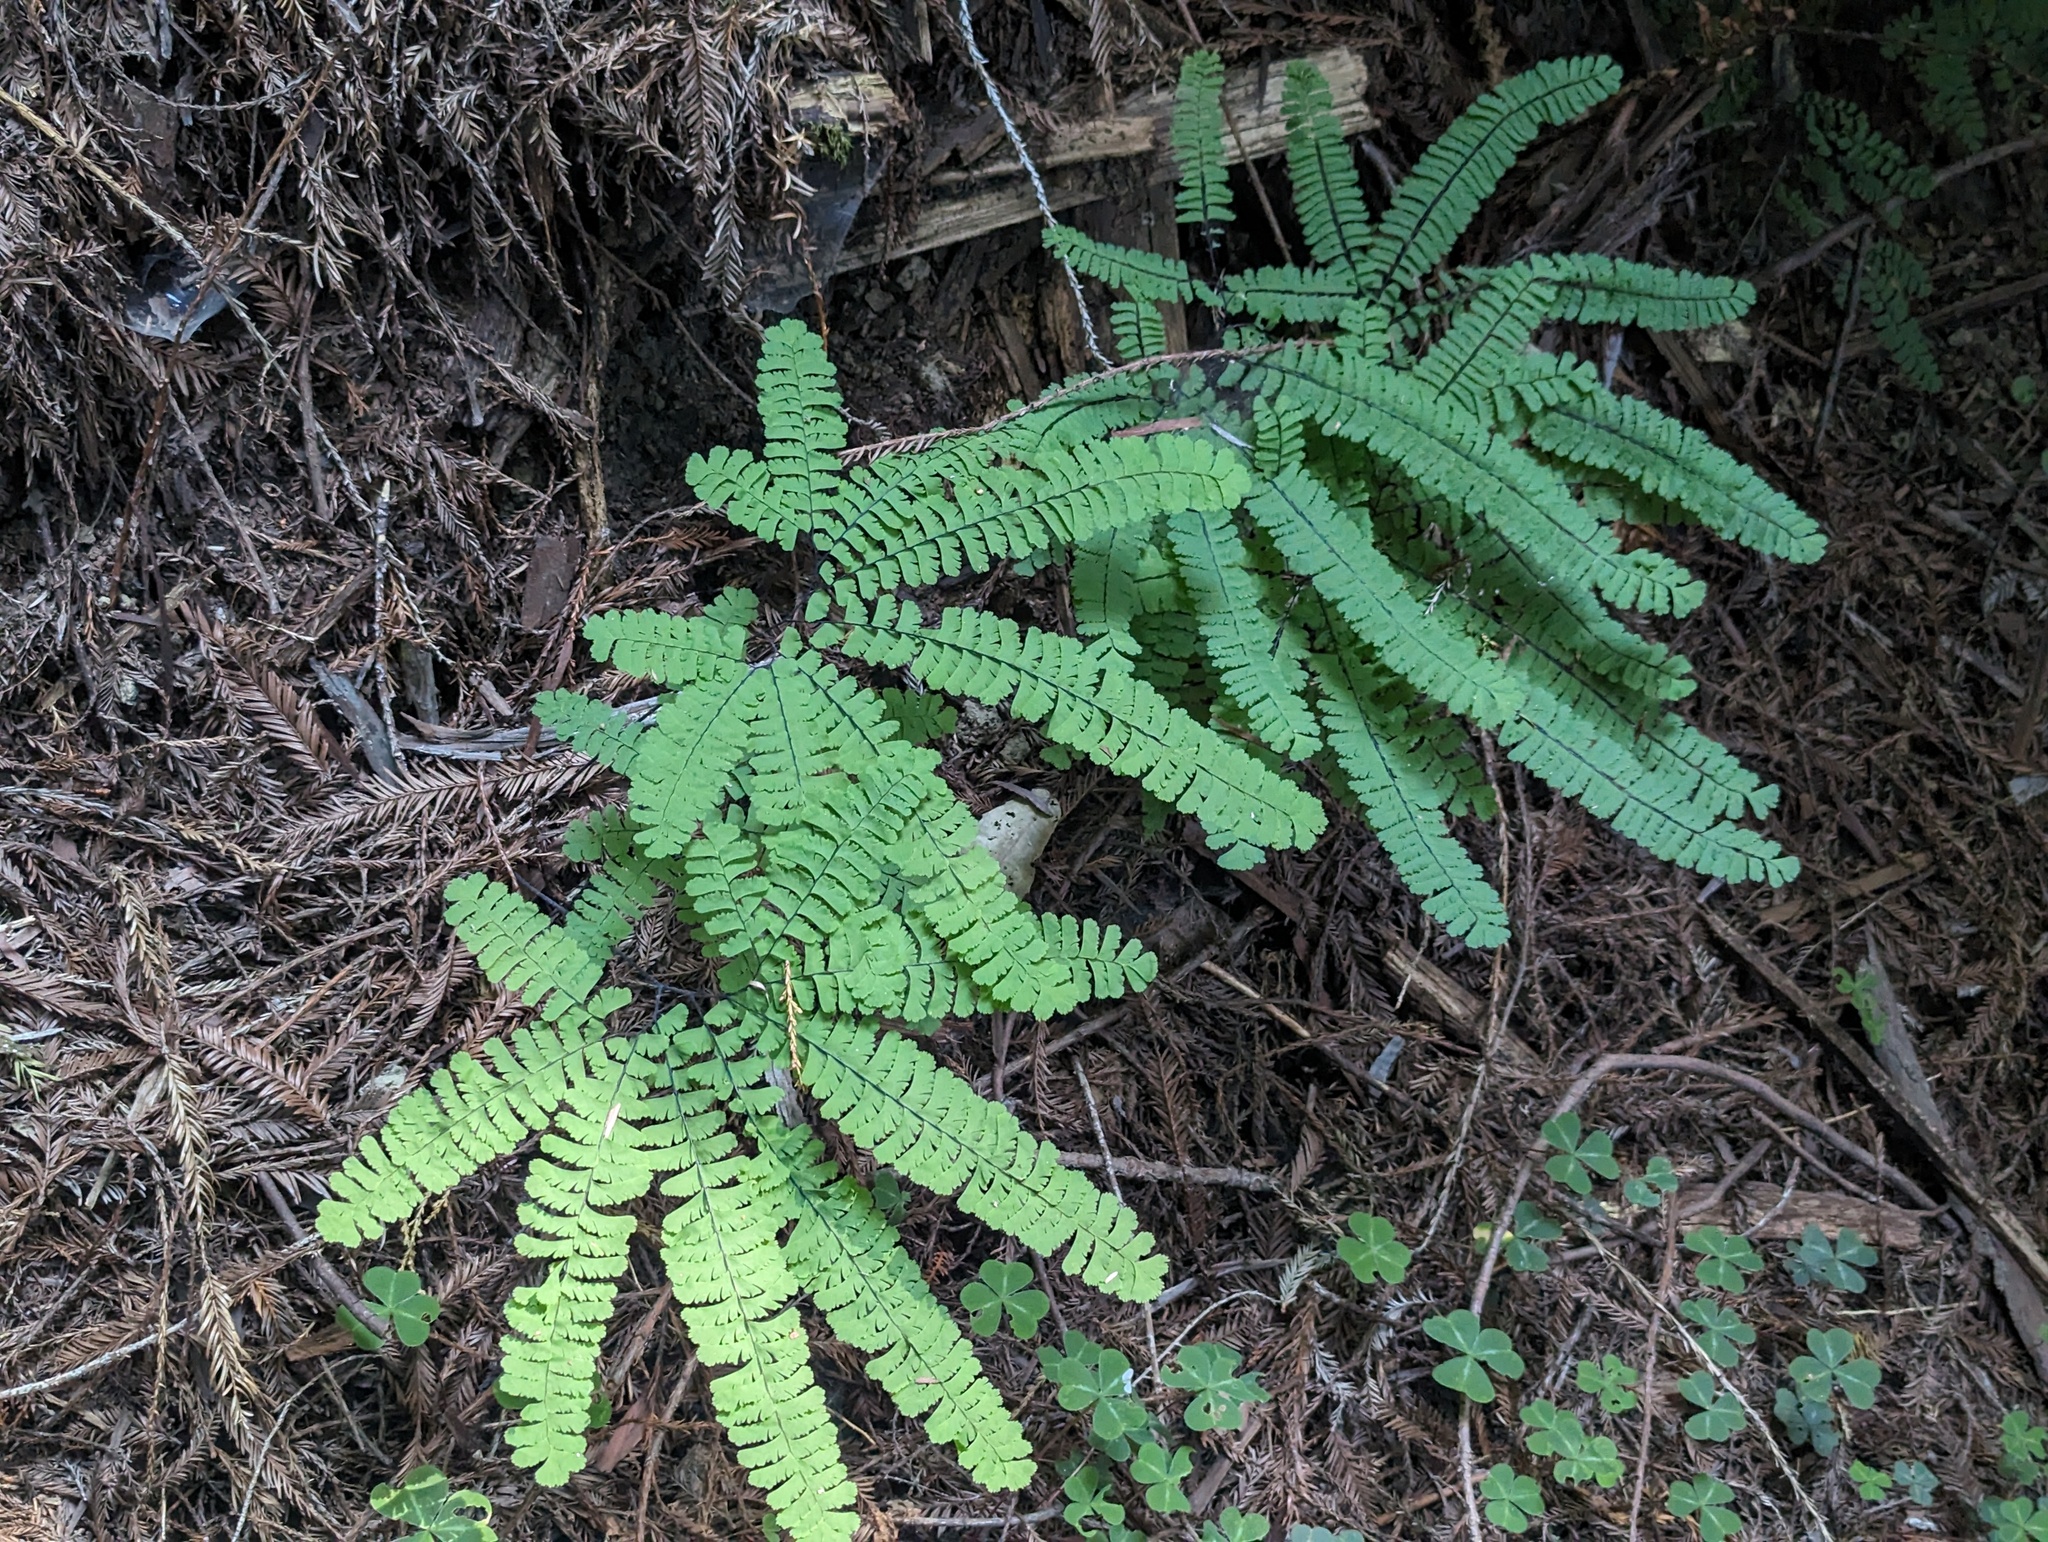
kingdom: Plantae
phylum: Tracheophyta
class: Polypodiopsida
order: Polypodiales
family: Pteridaceae
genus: Adiantum
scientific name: Adiantum aleuticum
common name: Aleutian maidenhair fern
